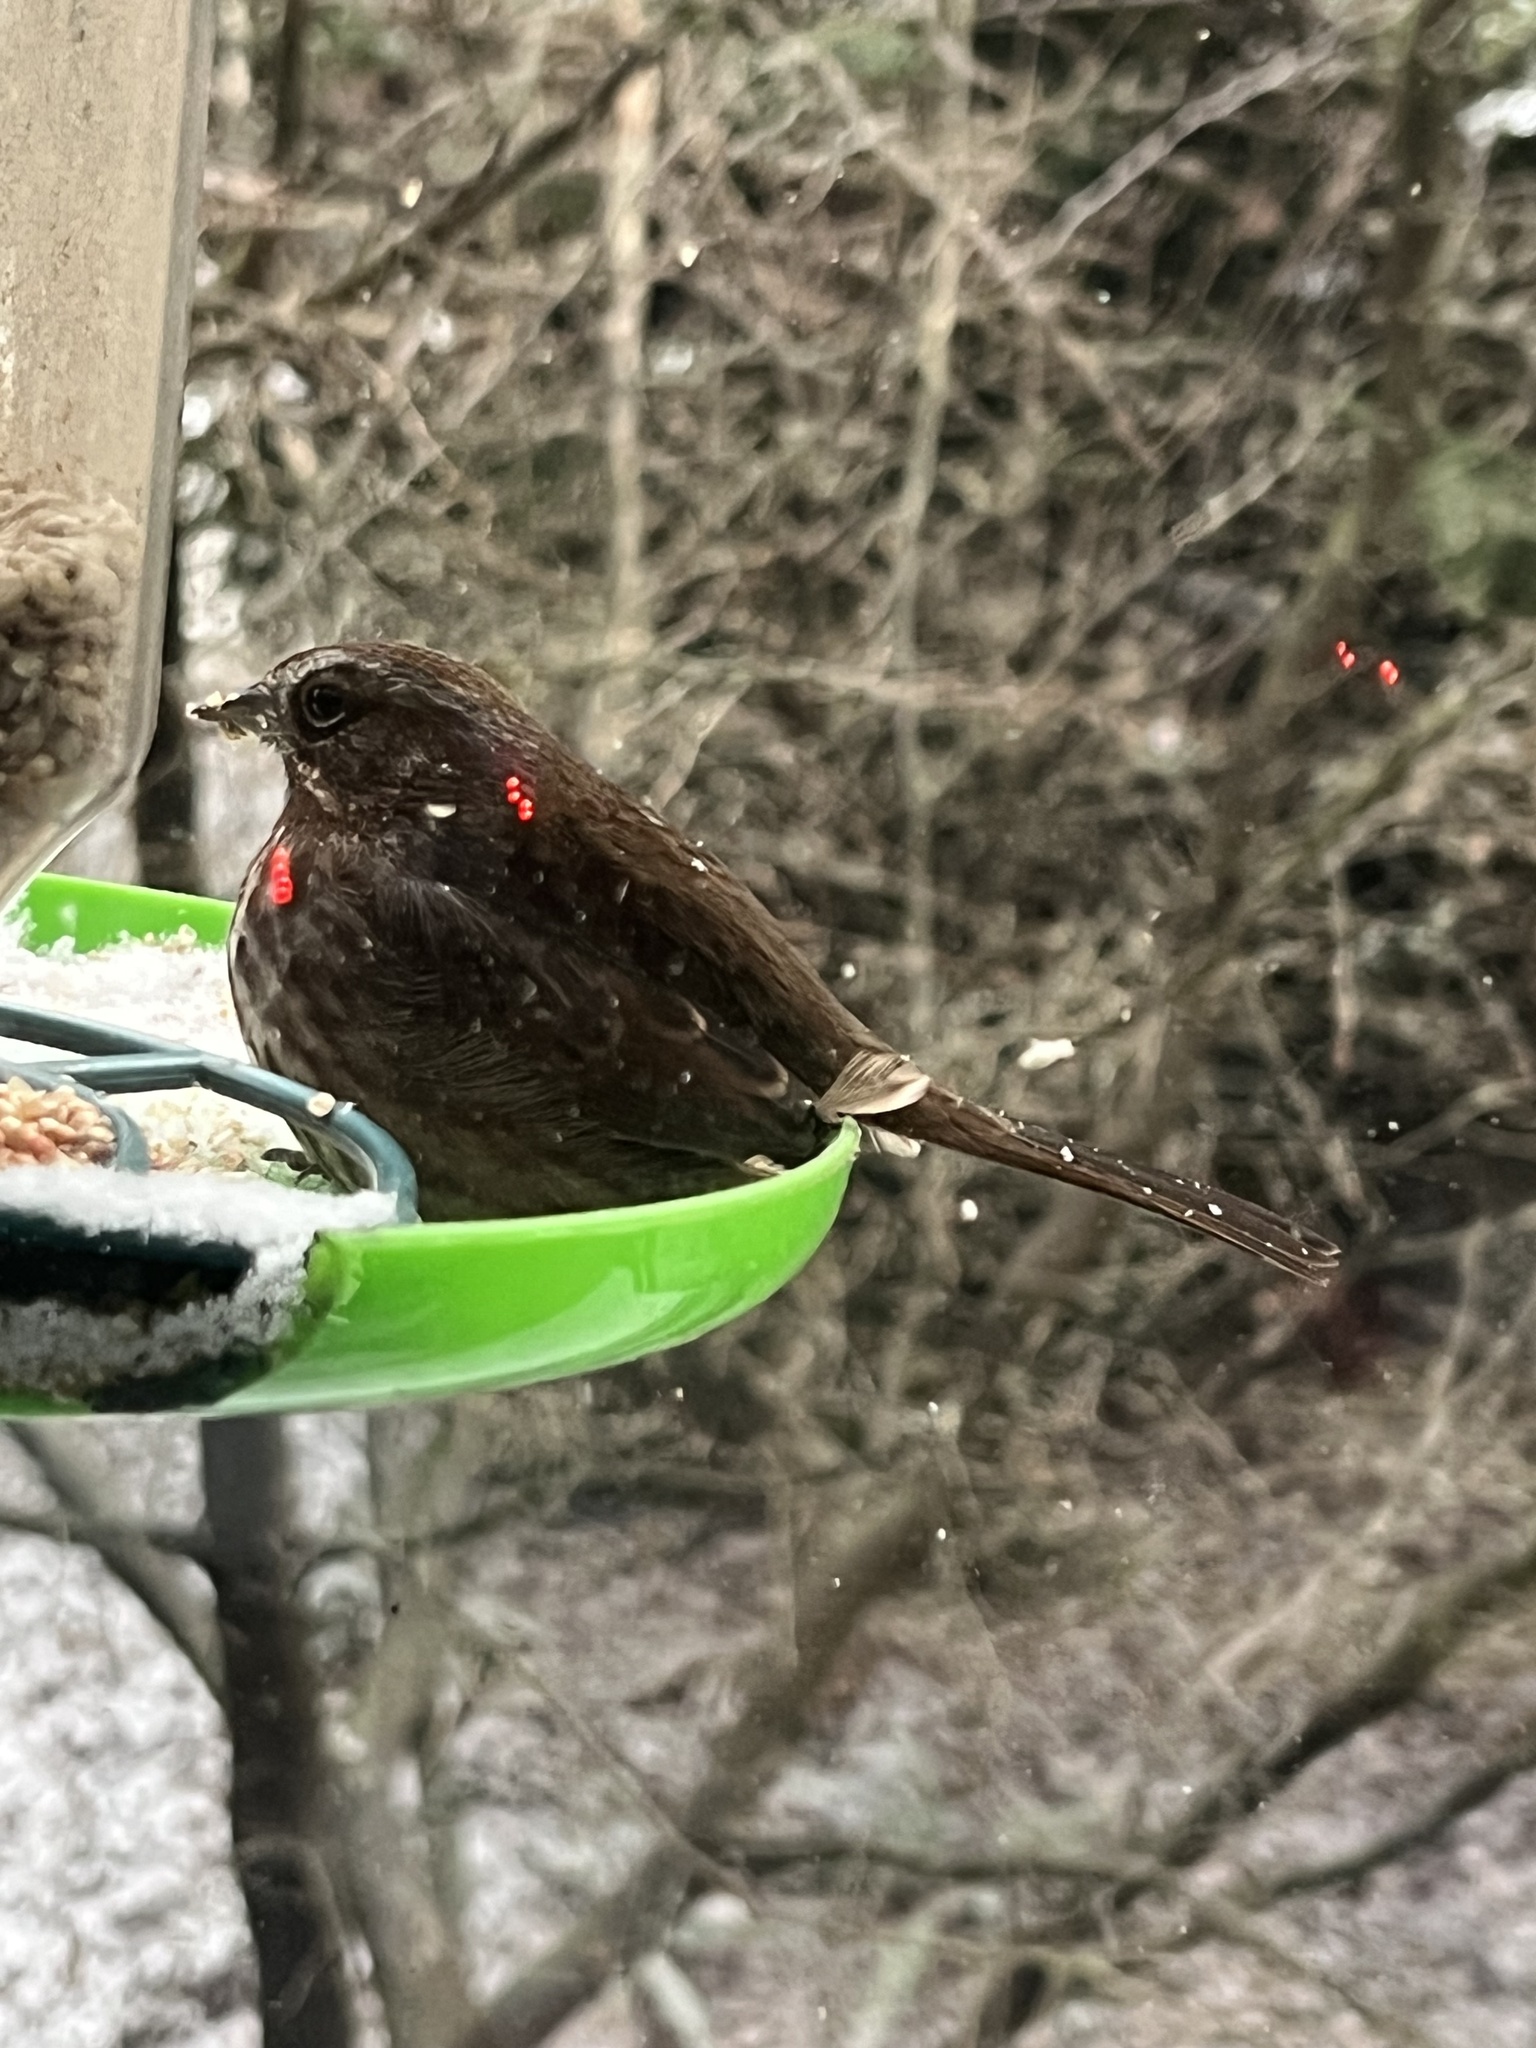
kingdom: Animalia
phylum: Chordata
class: Aves
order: Passeriformes
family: Passerellidae
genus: Melospiza
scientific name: Melospiza melodia
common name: Song sparrow
